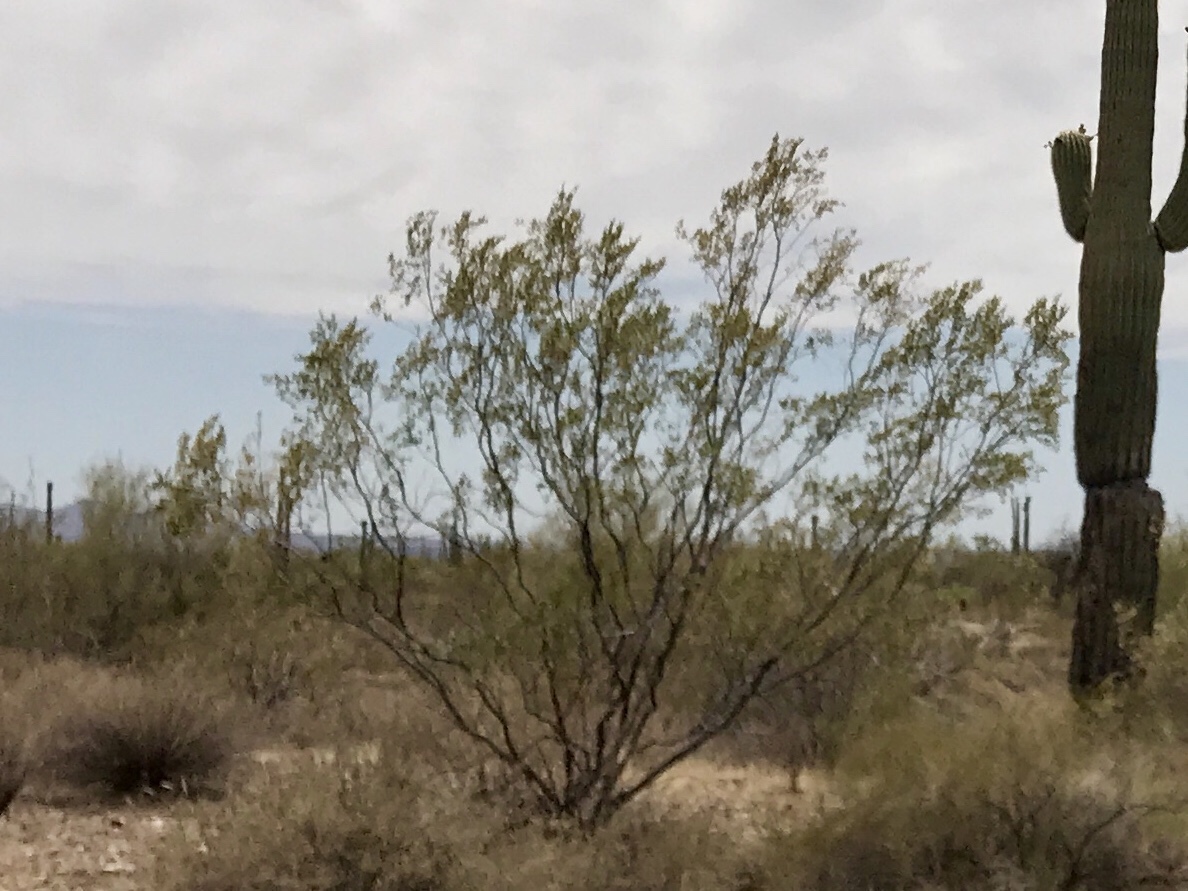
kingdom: Plantae
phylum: Tracheophyta
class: Magnoliopsida
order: Zygophyllales
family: Zygophyllaceae
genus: Larrea
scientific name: Larrea tridentata
